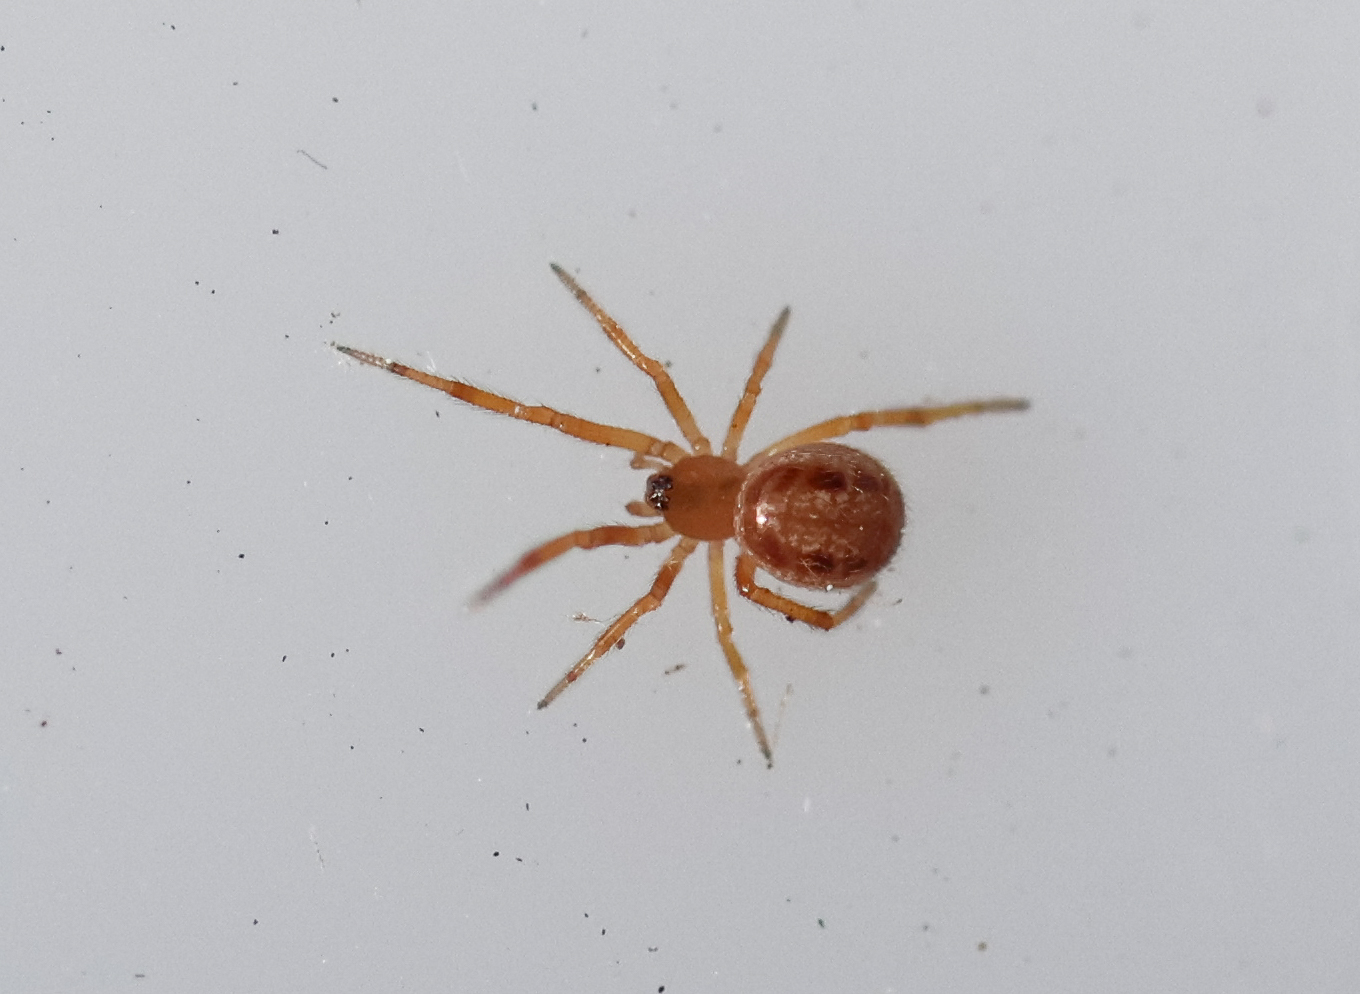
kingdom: Animalia
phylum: Arthropoda
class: Arachnida
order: Araneae
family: Theridiidae
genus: Steatoda
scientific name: Steatoda nobilis
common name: Cobweb weaver
